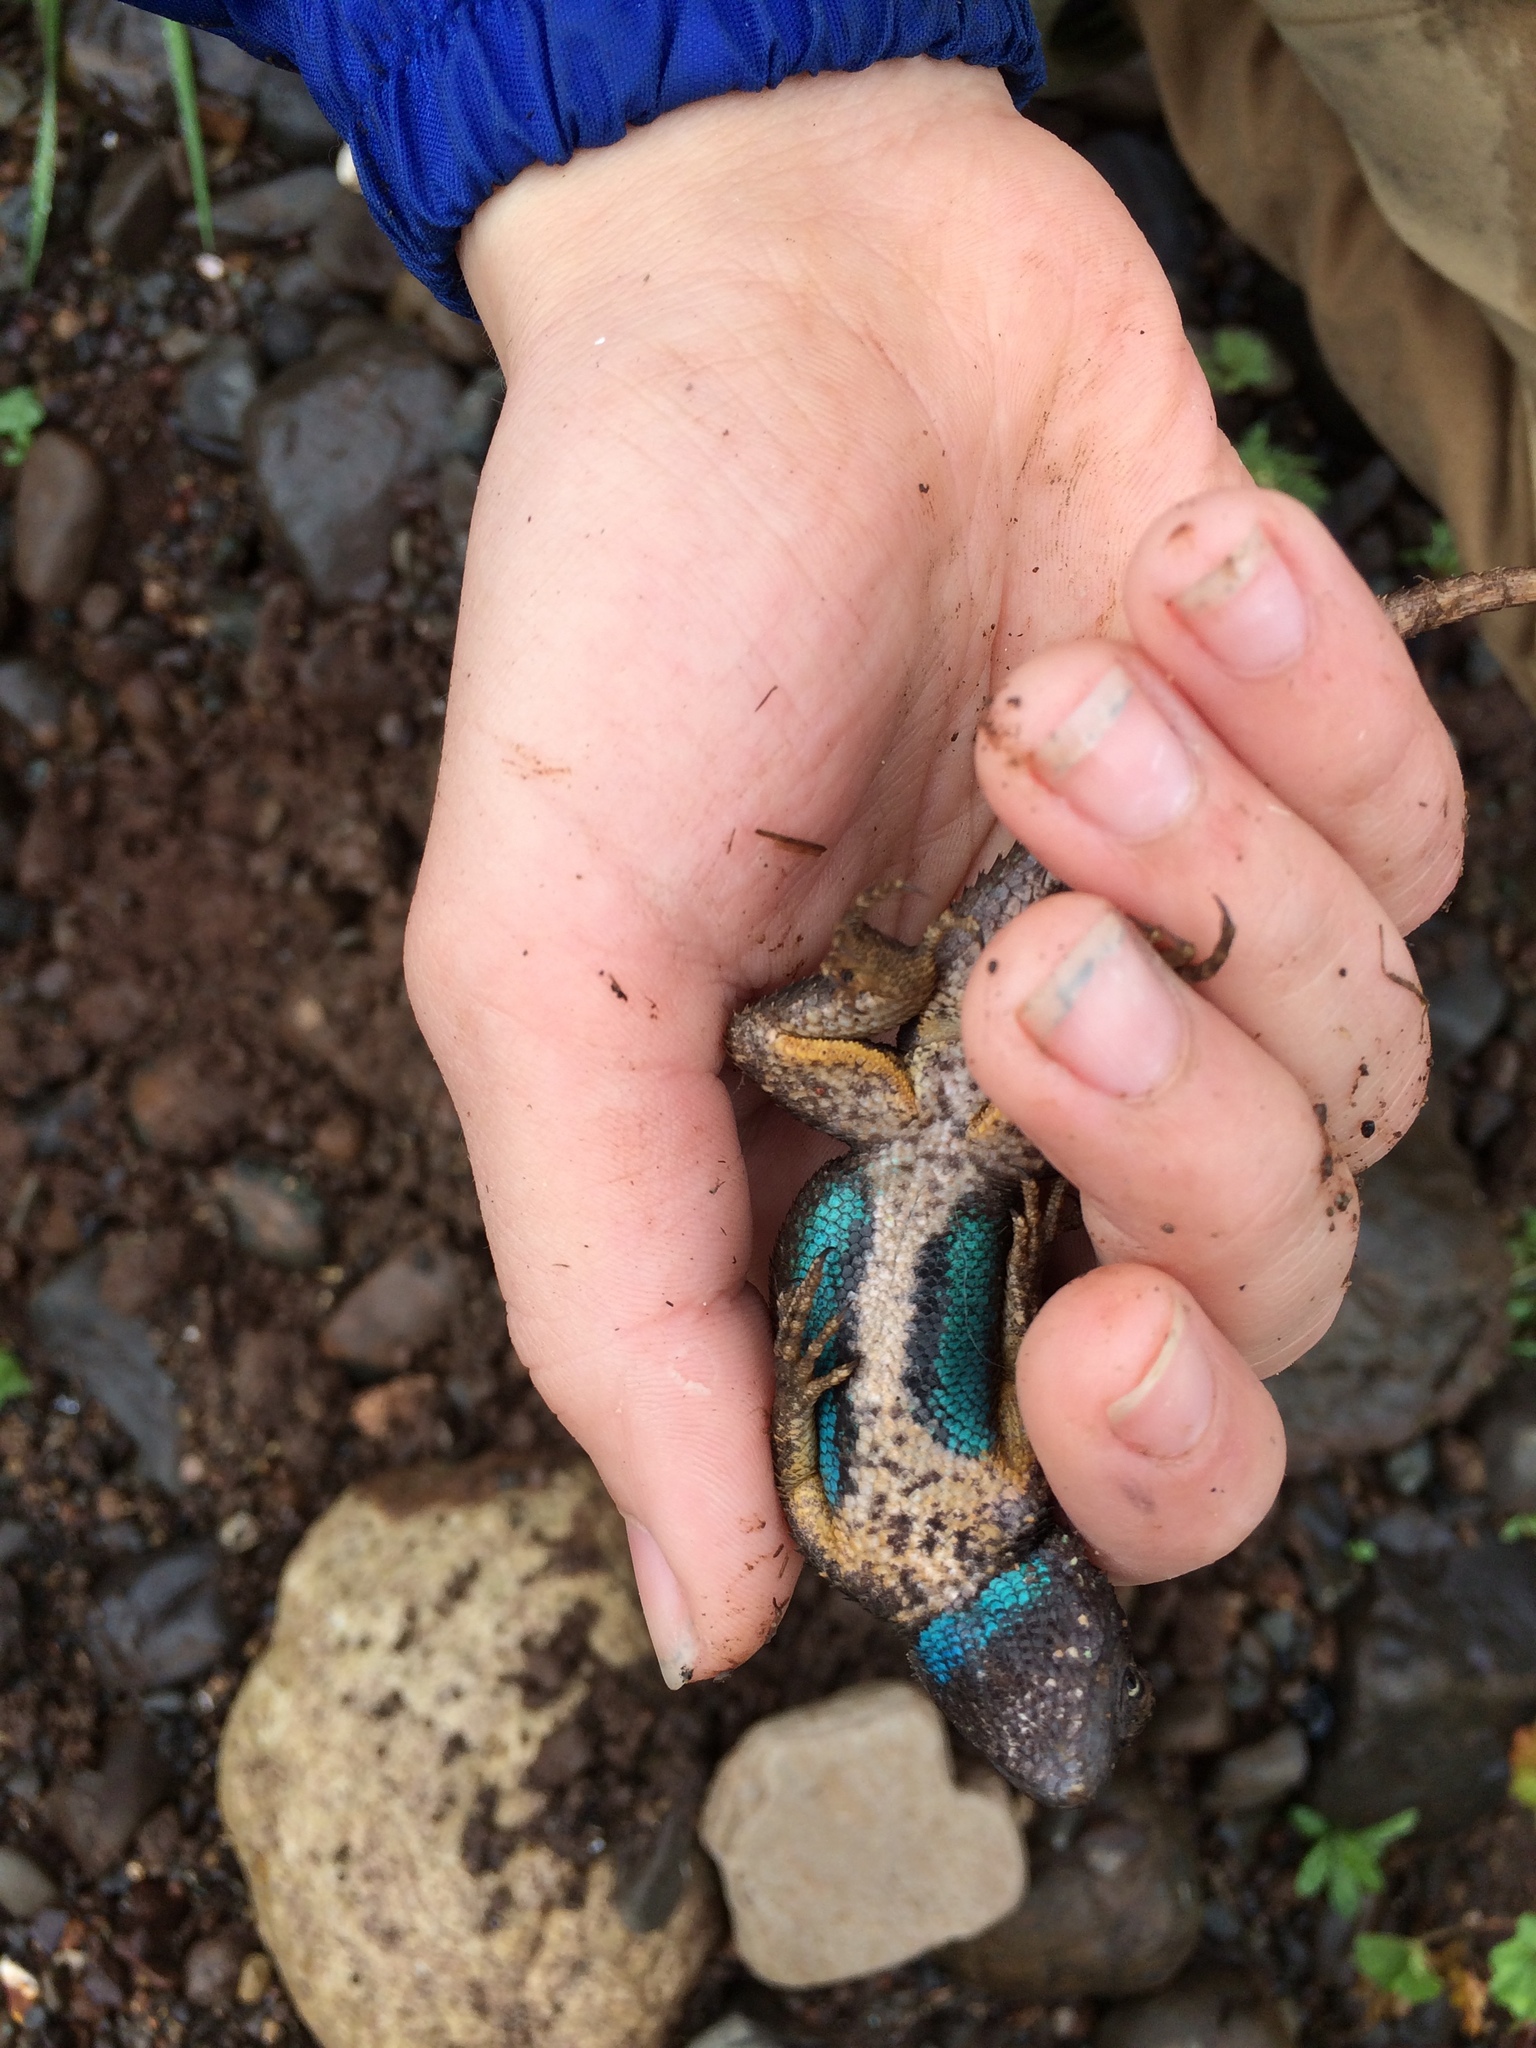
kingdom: Animalia
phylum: Chordata
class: Squamata
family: Phrynosomatidae
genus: Sceloporus
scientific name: Sceloporus occidentalis
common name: Western fence lizard
